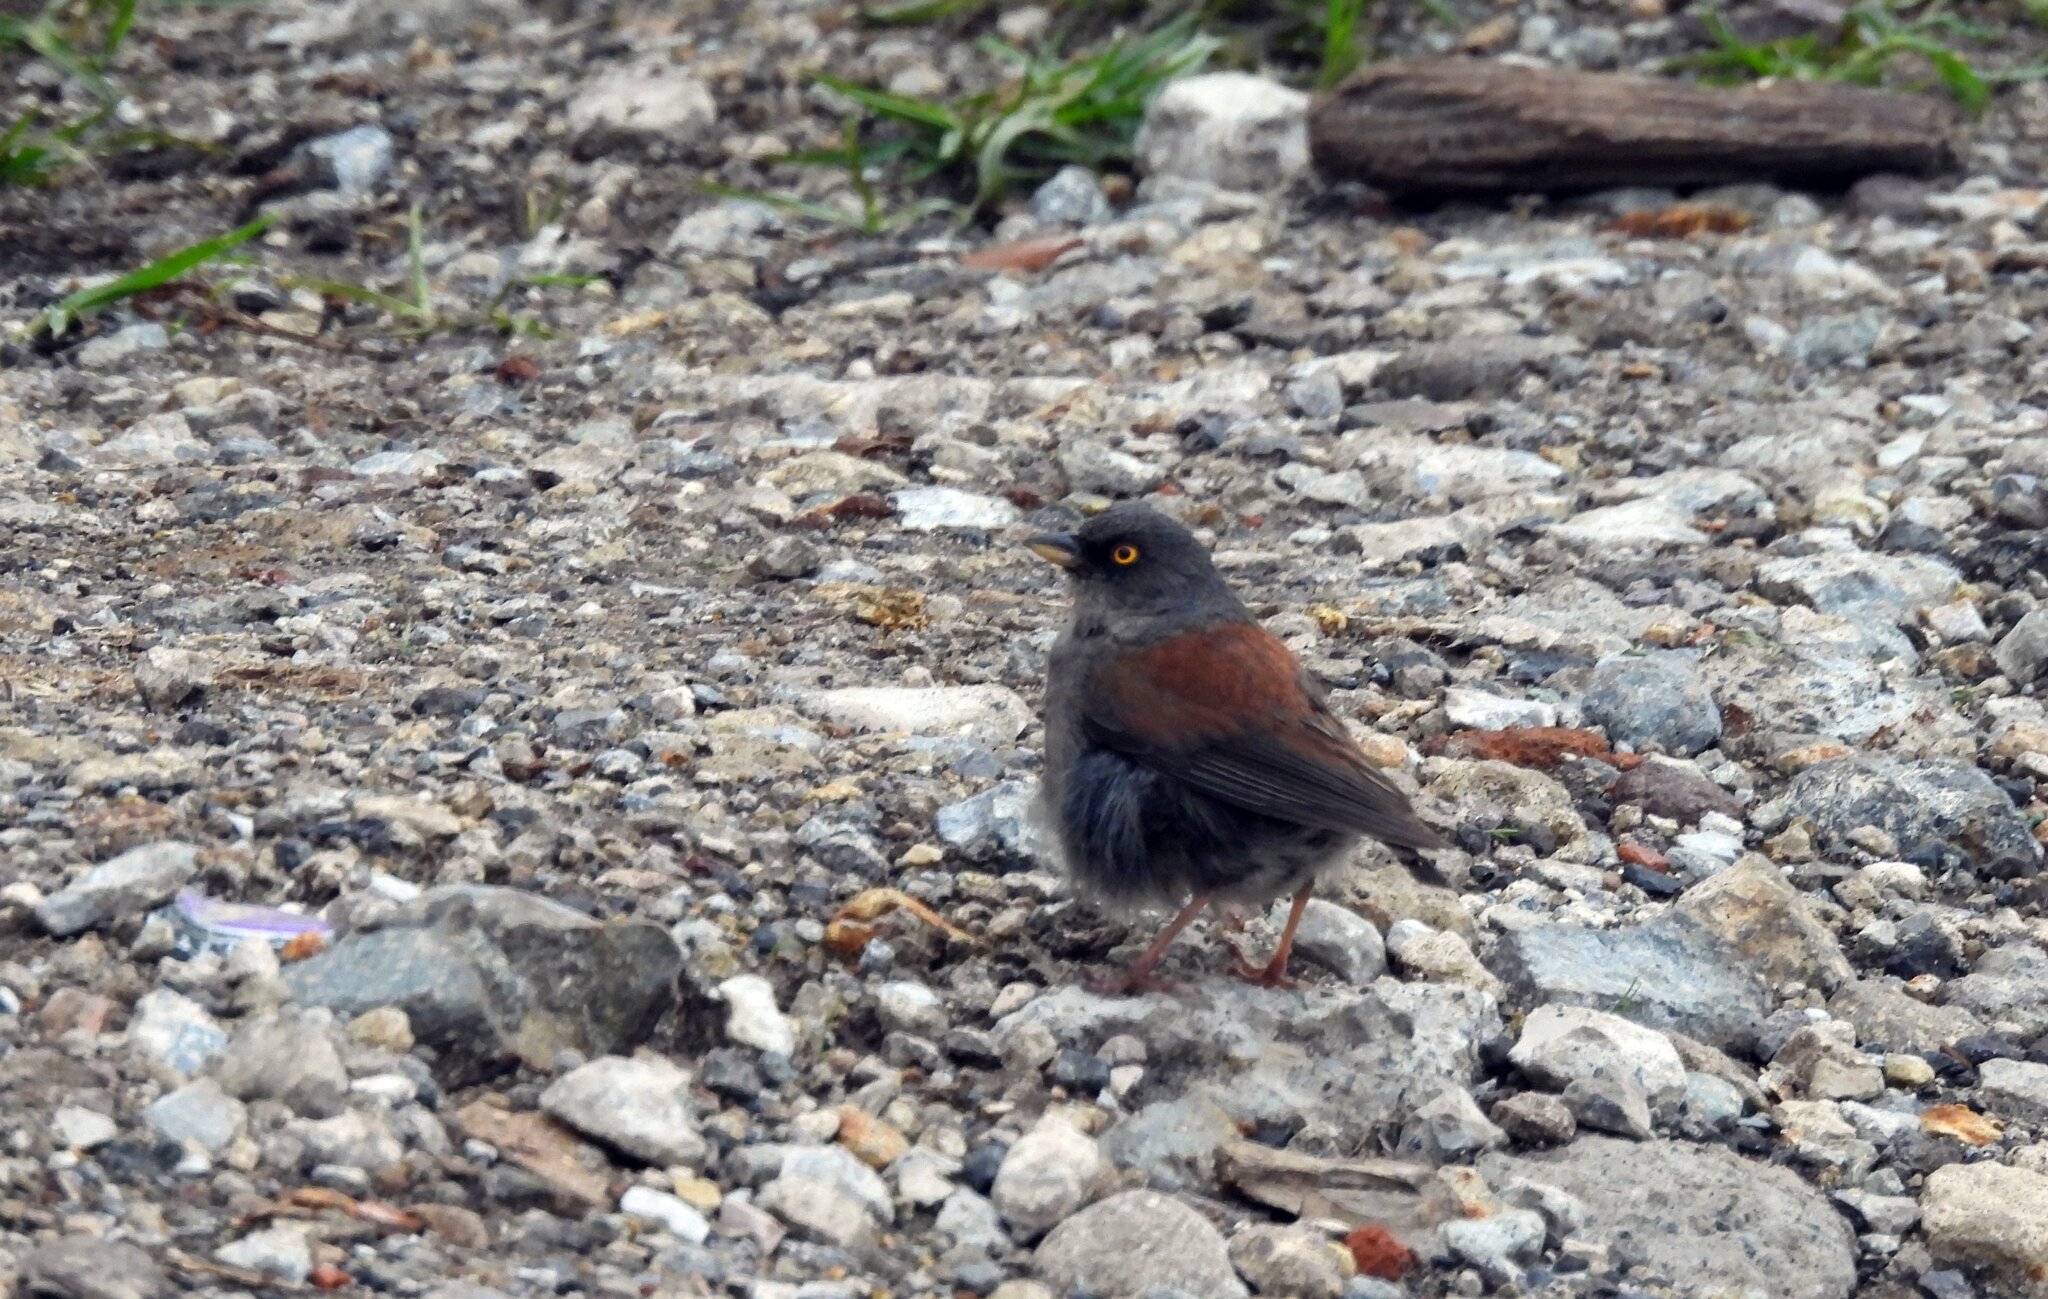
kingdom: Animalia
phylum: Chordata
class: Aves
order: Passeriformes
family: Passerellidae
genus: Junco
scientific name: Junco phaeonotus
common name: Yellow-eyed junco
